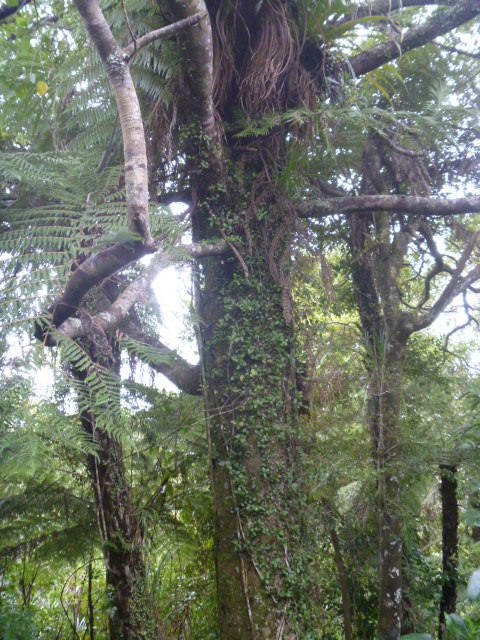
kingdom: Plantae
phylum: Tracheophyta
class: Pinopsida
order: Pinales
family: Podocarpaceae
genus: Prumnopitys
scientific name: Prumnopitys ferruginea
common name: Brown pine
